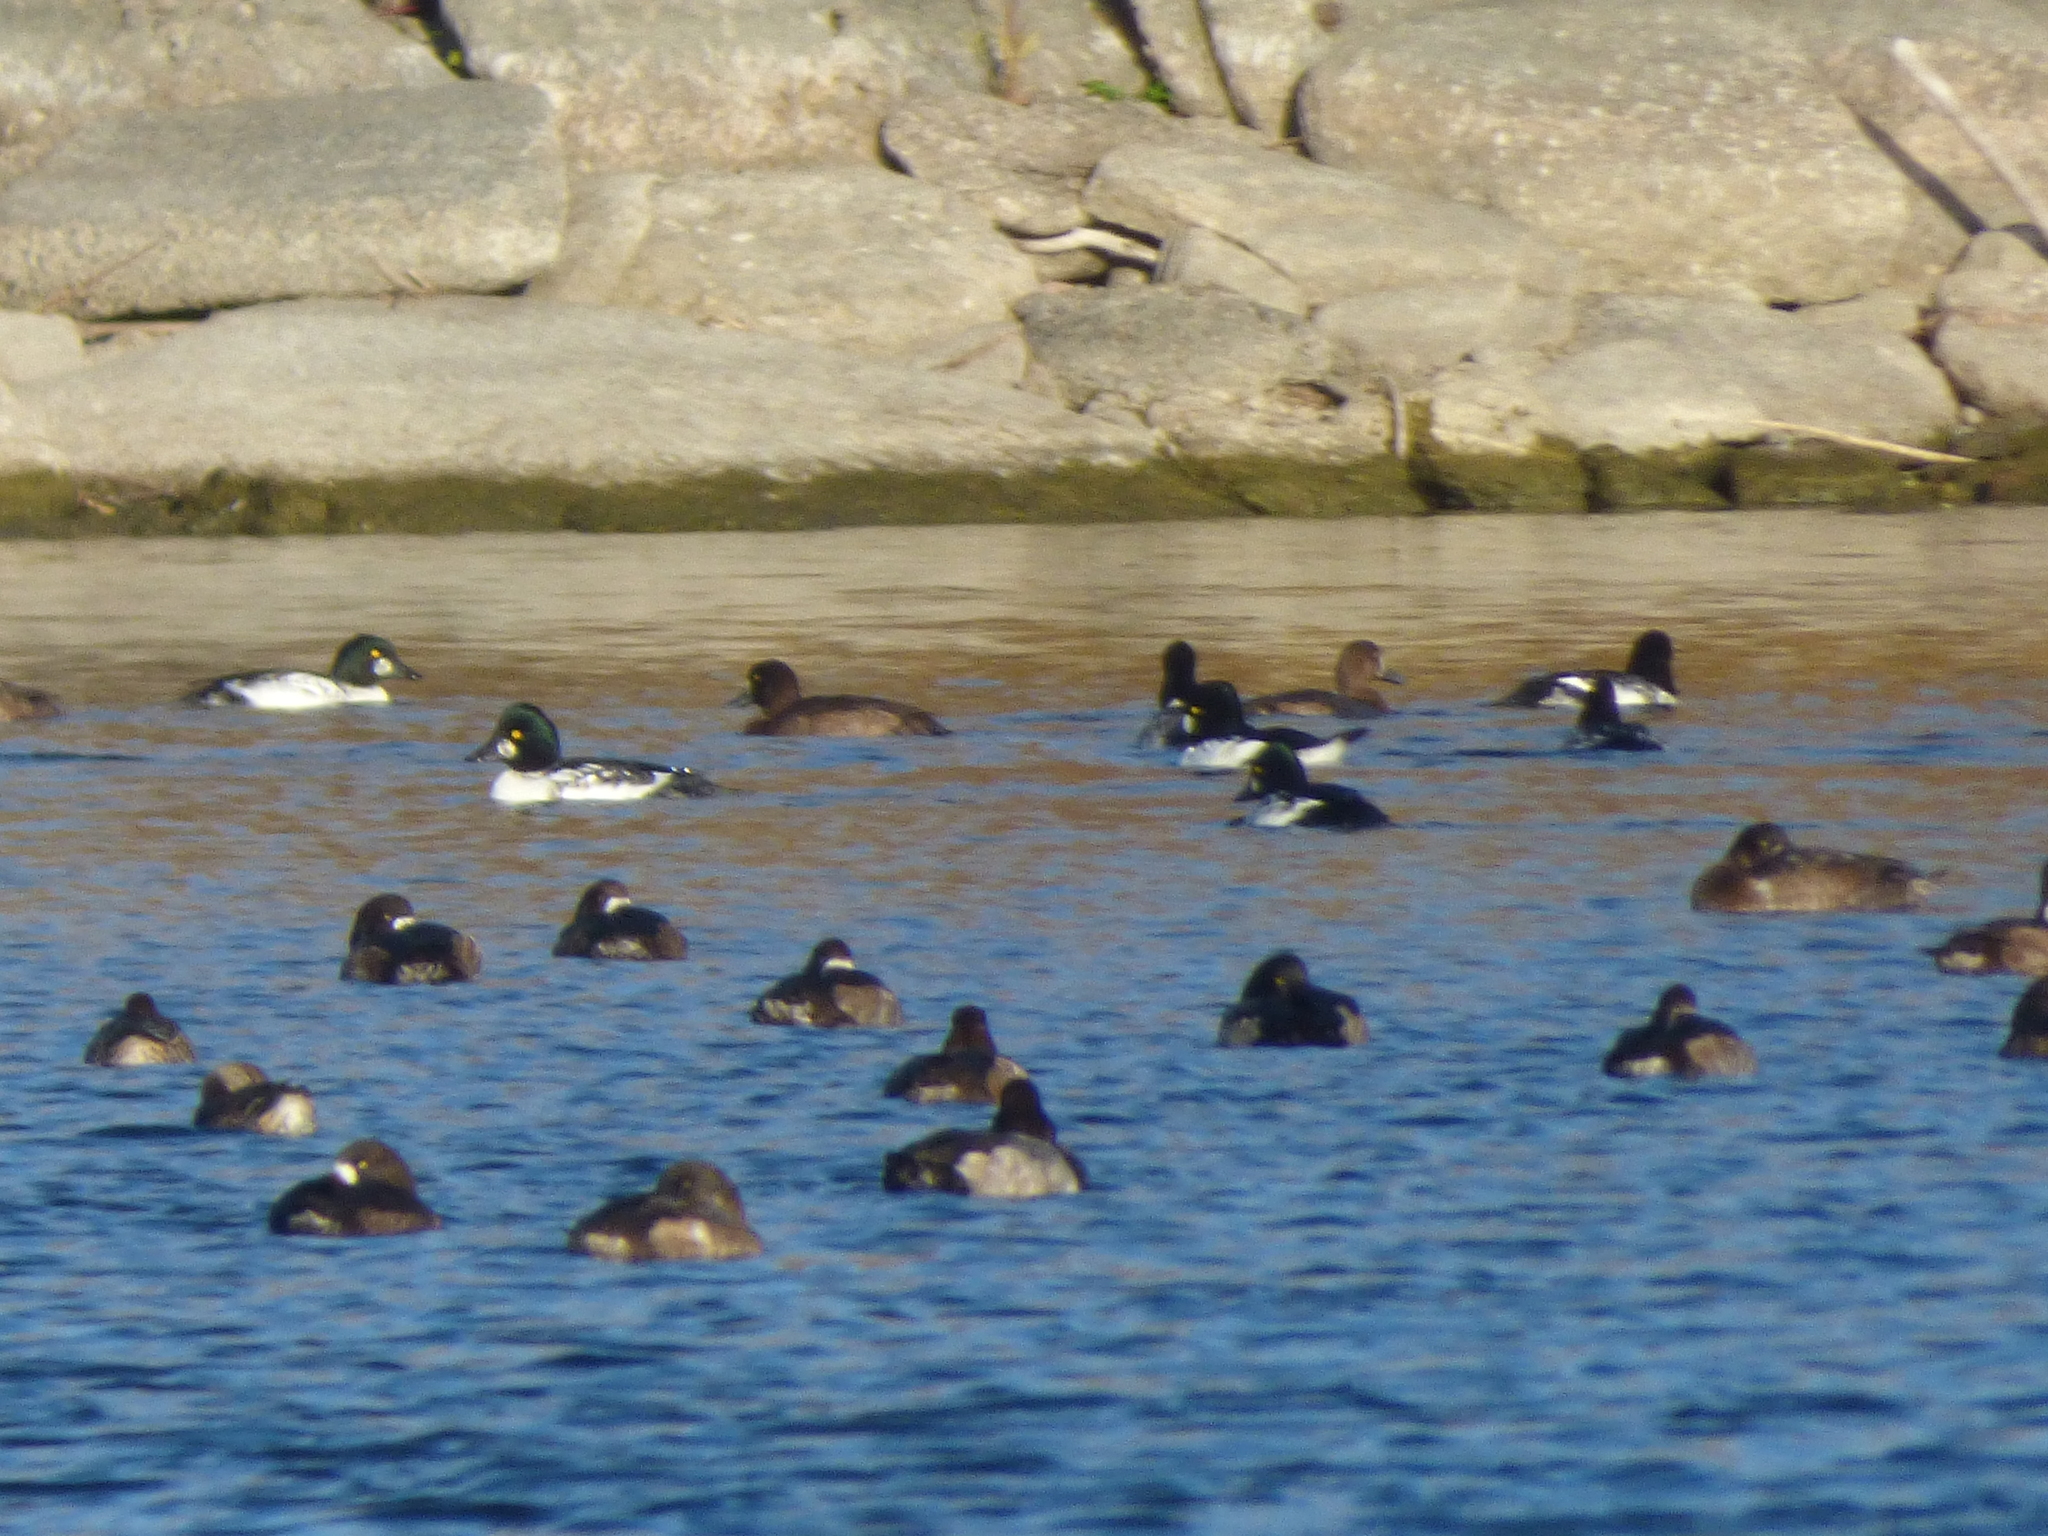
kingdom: Animalia
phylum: Chordata
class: Aves
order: Anseriformes
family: Anatidae
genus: Bucephala
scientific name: Bucephala clangula
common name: Common goldeneye
